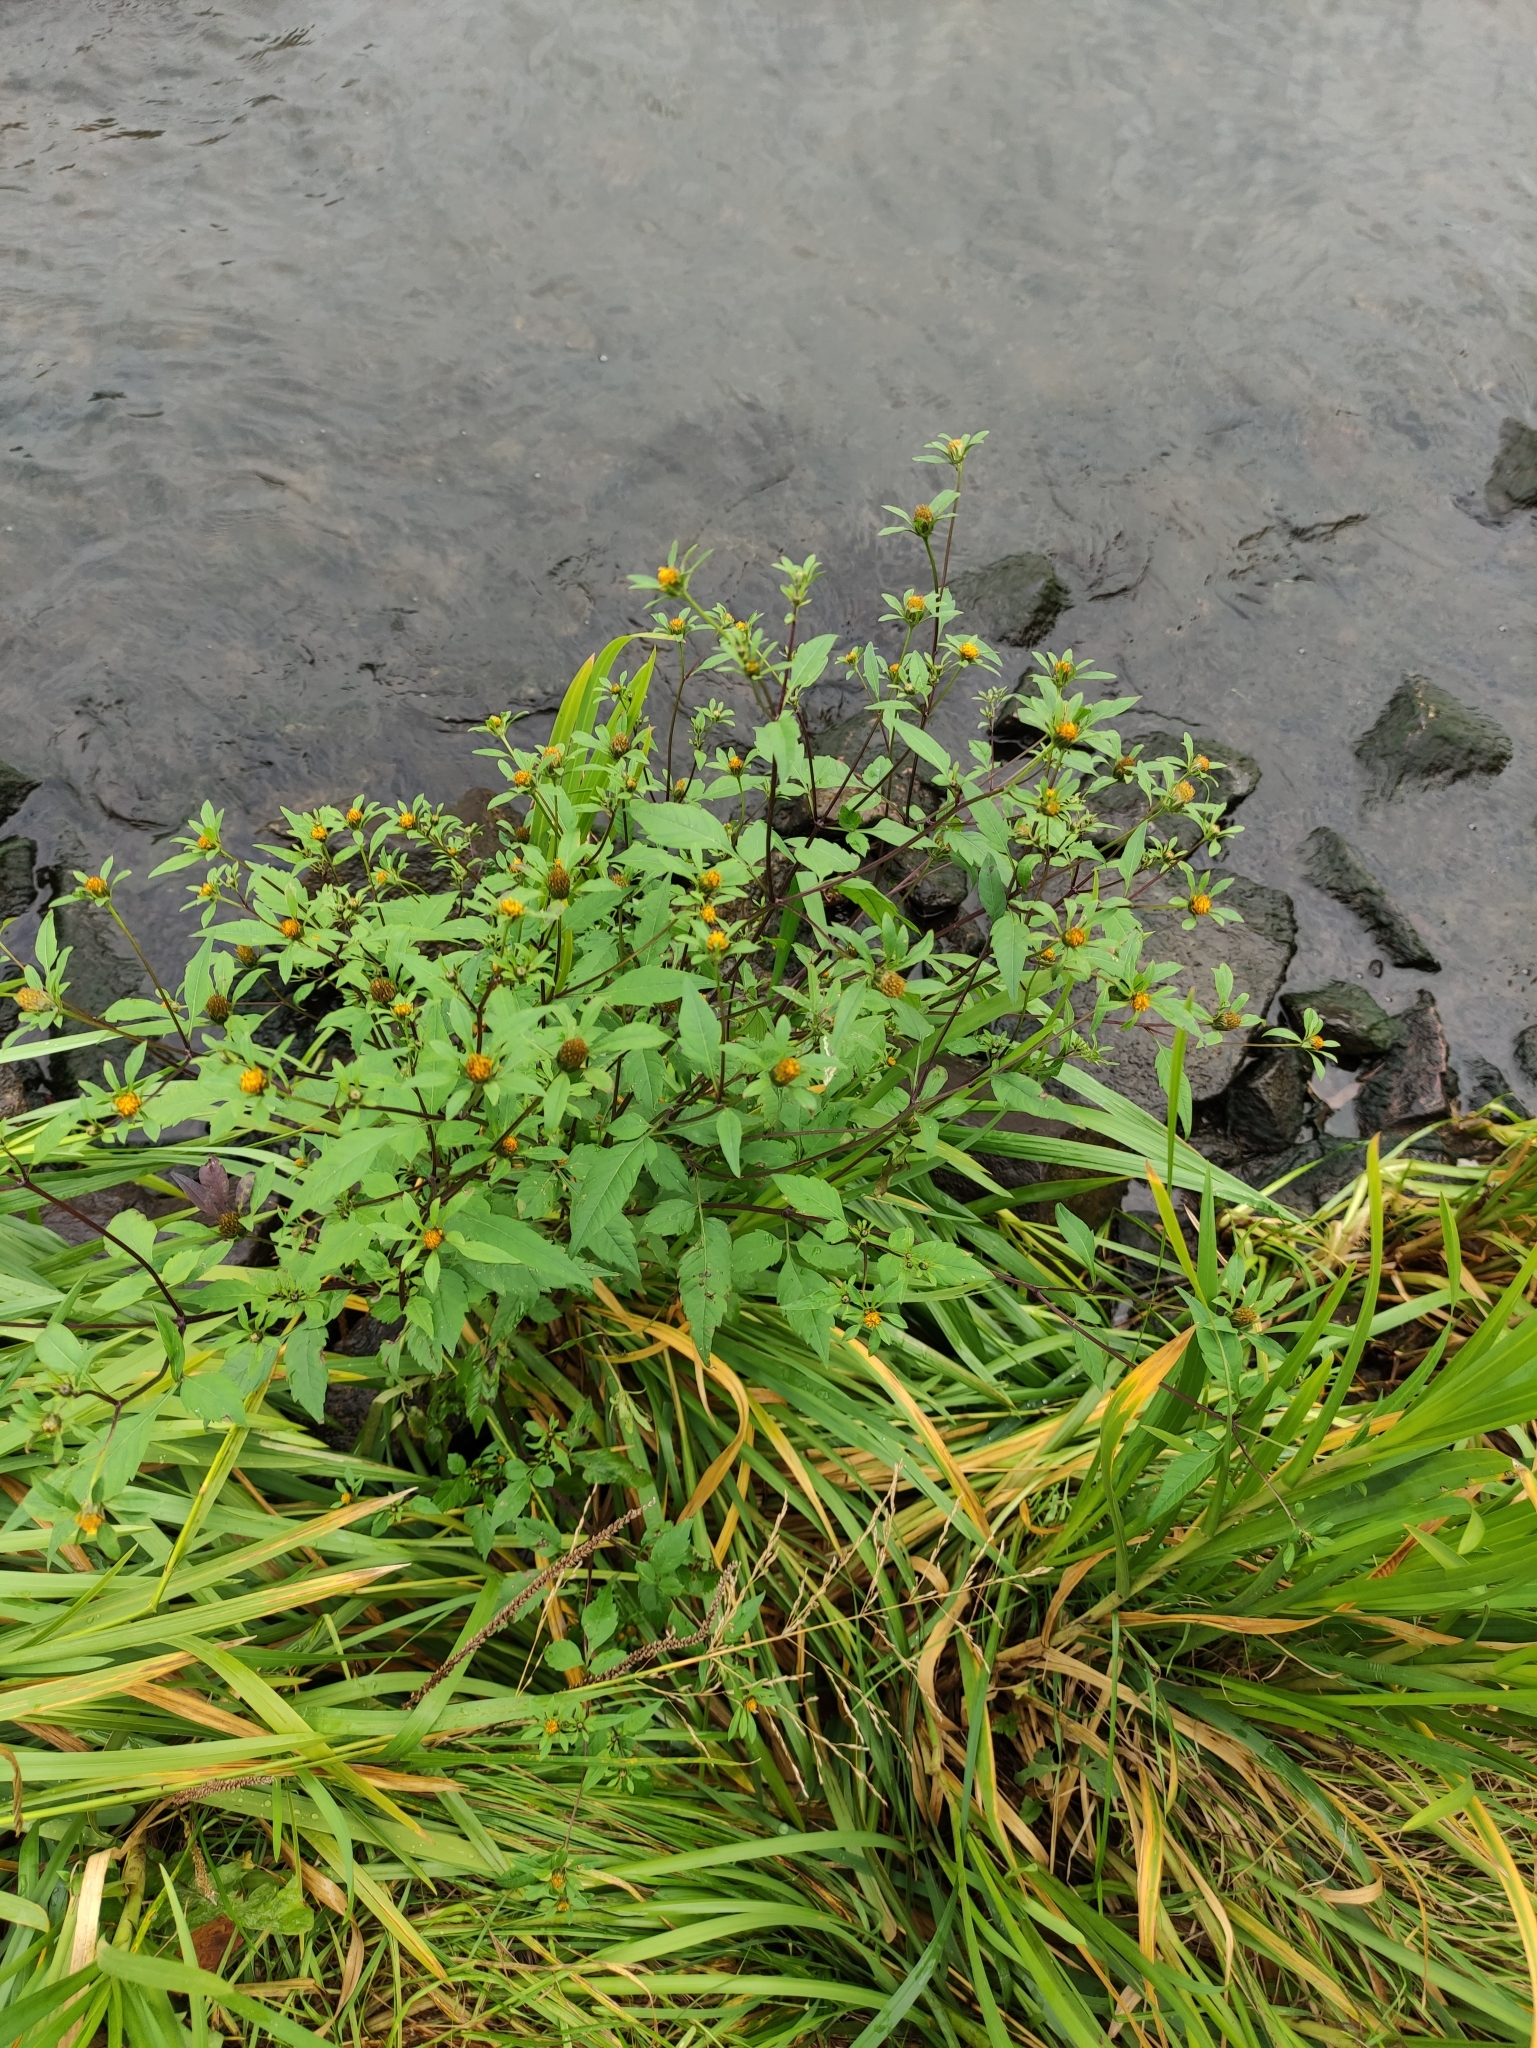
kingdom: Plantae
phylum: Tracheophyta
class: Magnoliopsida
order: Asterales
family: Asteraceae
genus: Bidens
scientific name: Bidens frondosa
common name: Beggarticks
